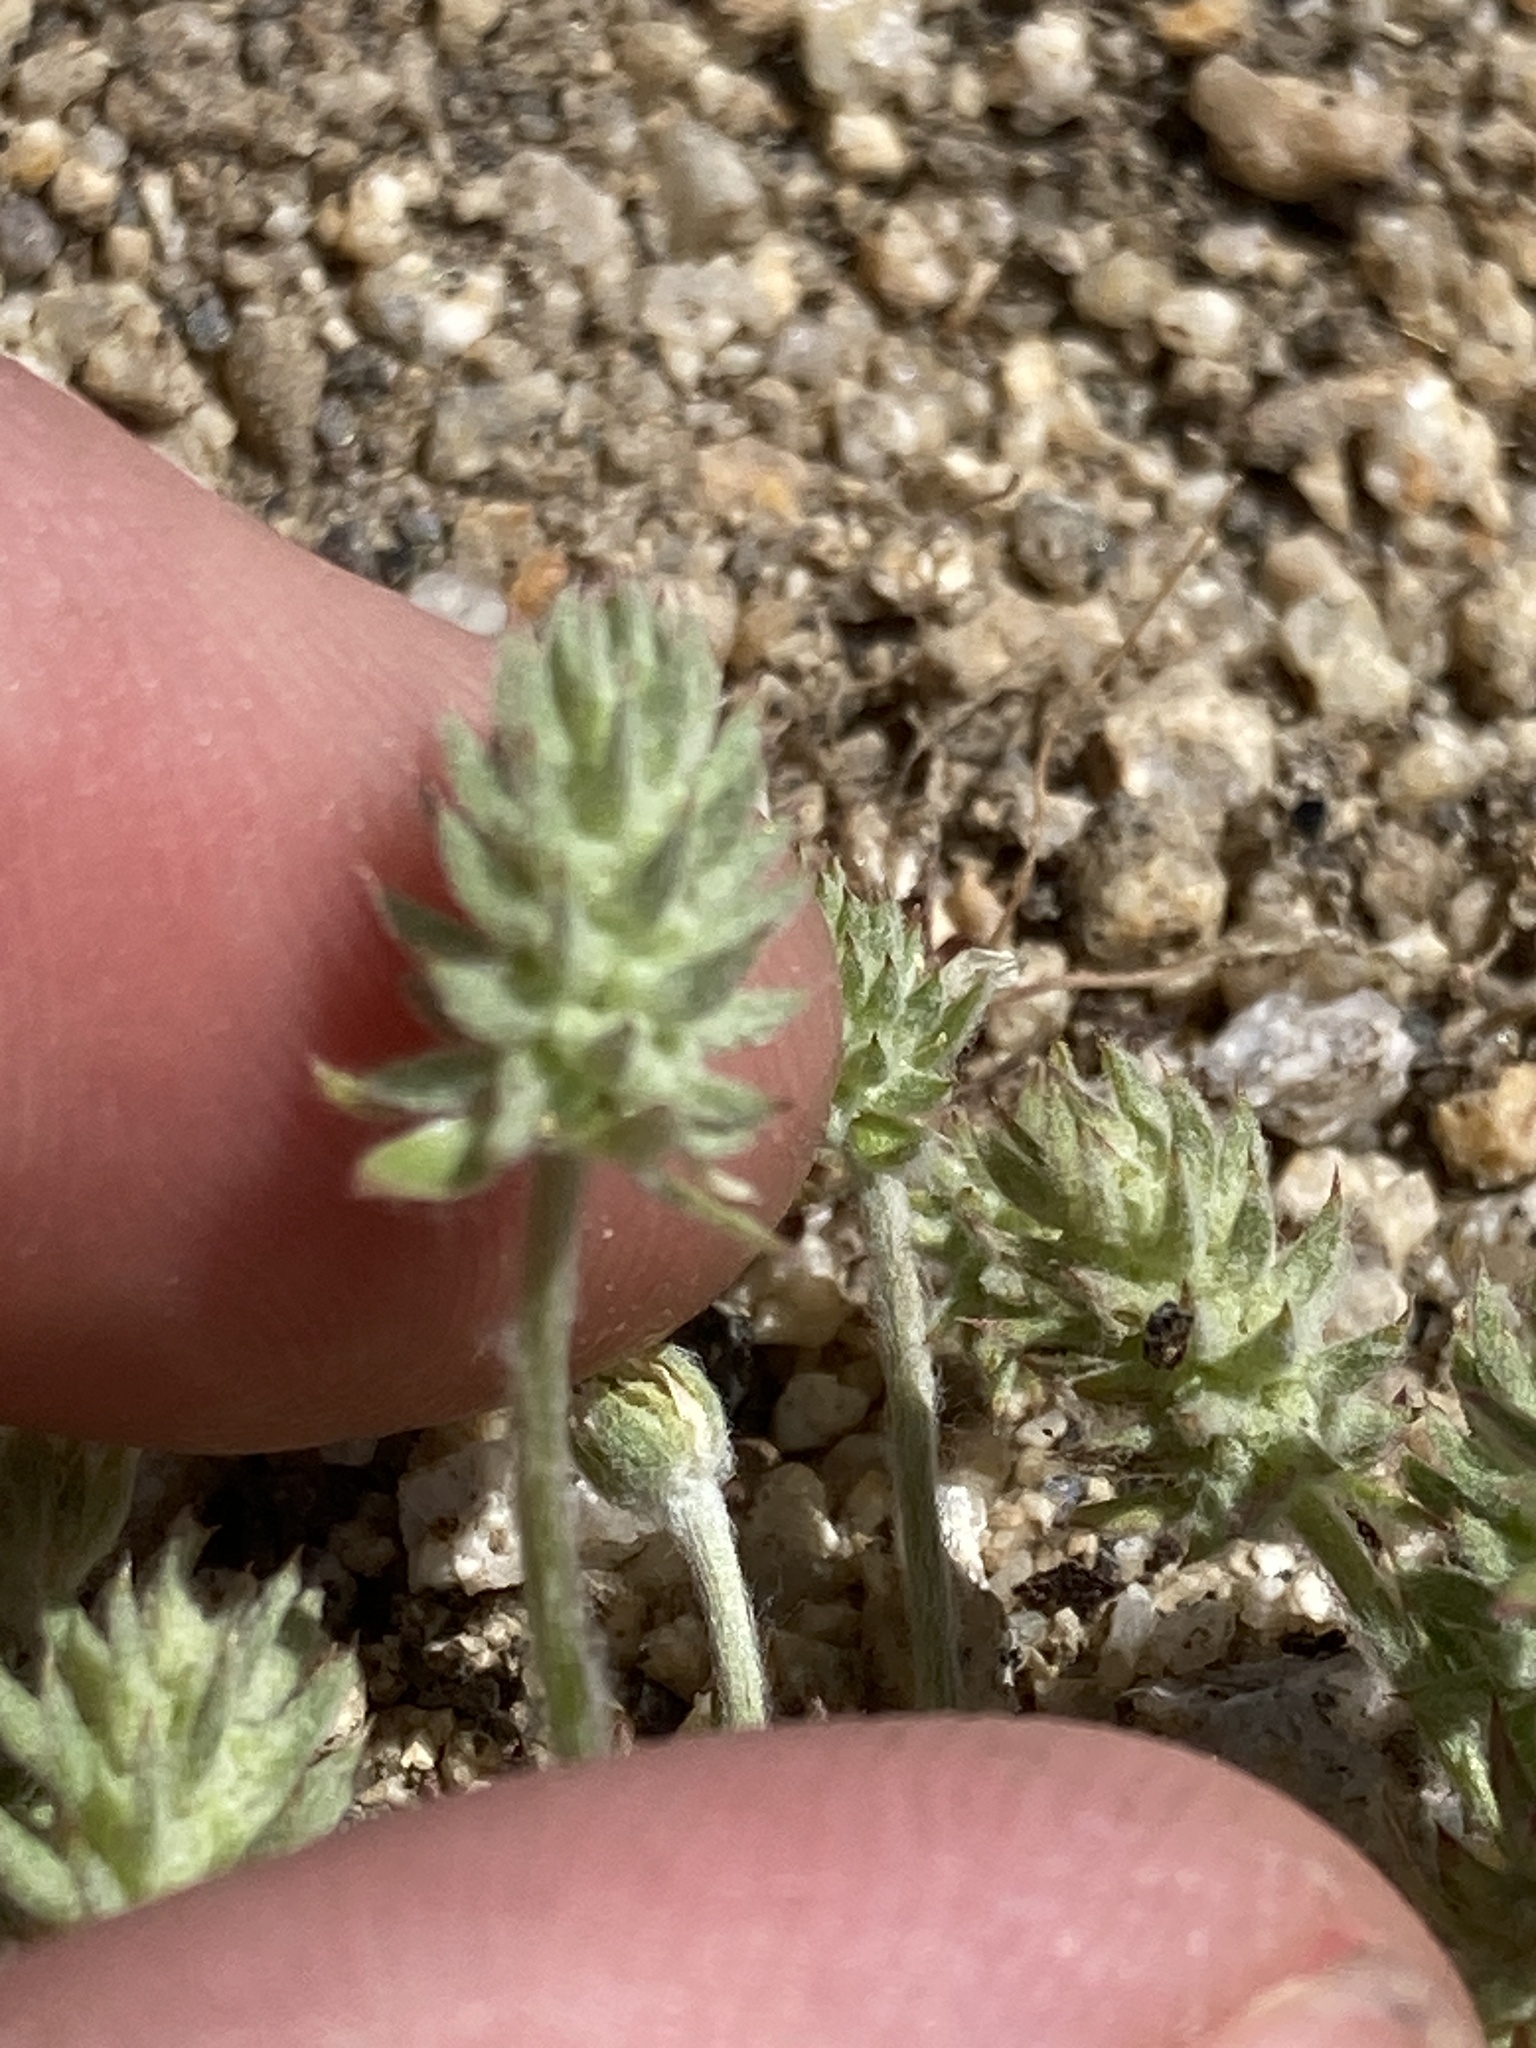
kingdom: Plantae
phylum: Tracheophyta
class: Magnoliopsida
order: Ranunculales
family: Ranunculaceae
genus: Ceratocephala
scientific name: Ceratocephala orthoceras
